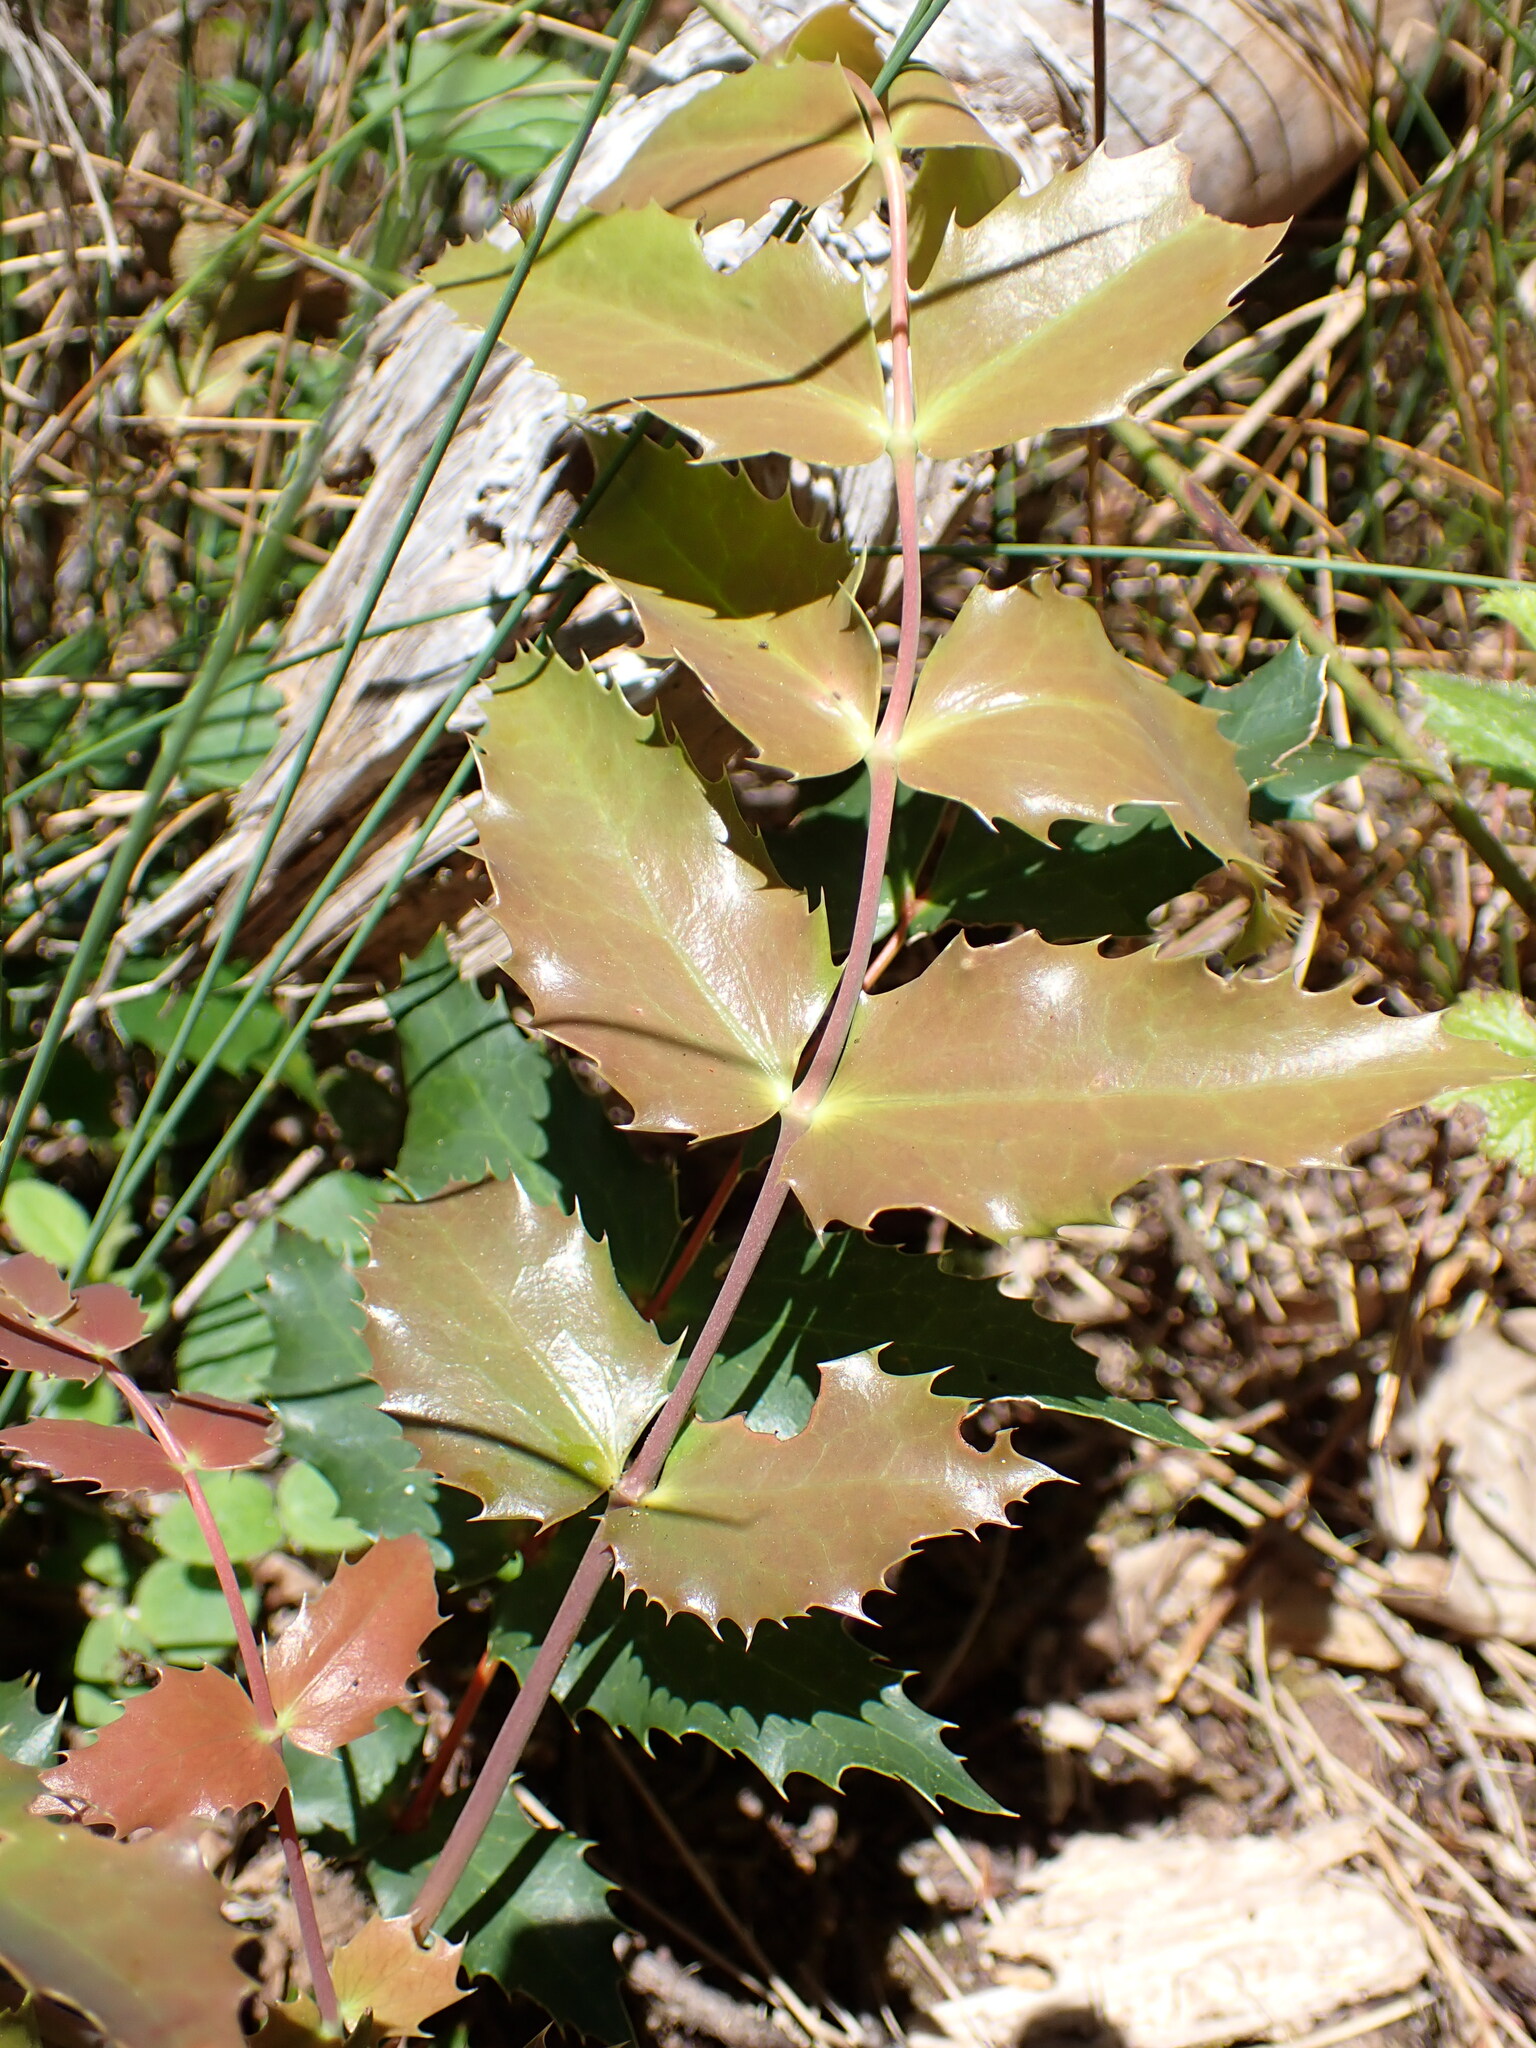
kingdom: Plantae
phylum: Tracheophyta
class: Magnoliopsida
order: Ranunculales
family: Berberidaceae
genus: Mahonia
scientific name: Mahonia nervosa
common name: Cascade oregon-grape
